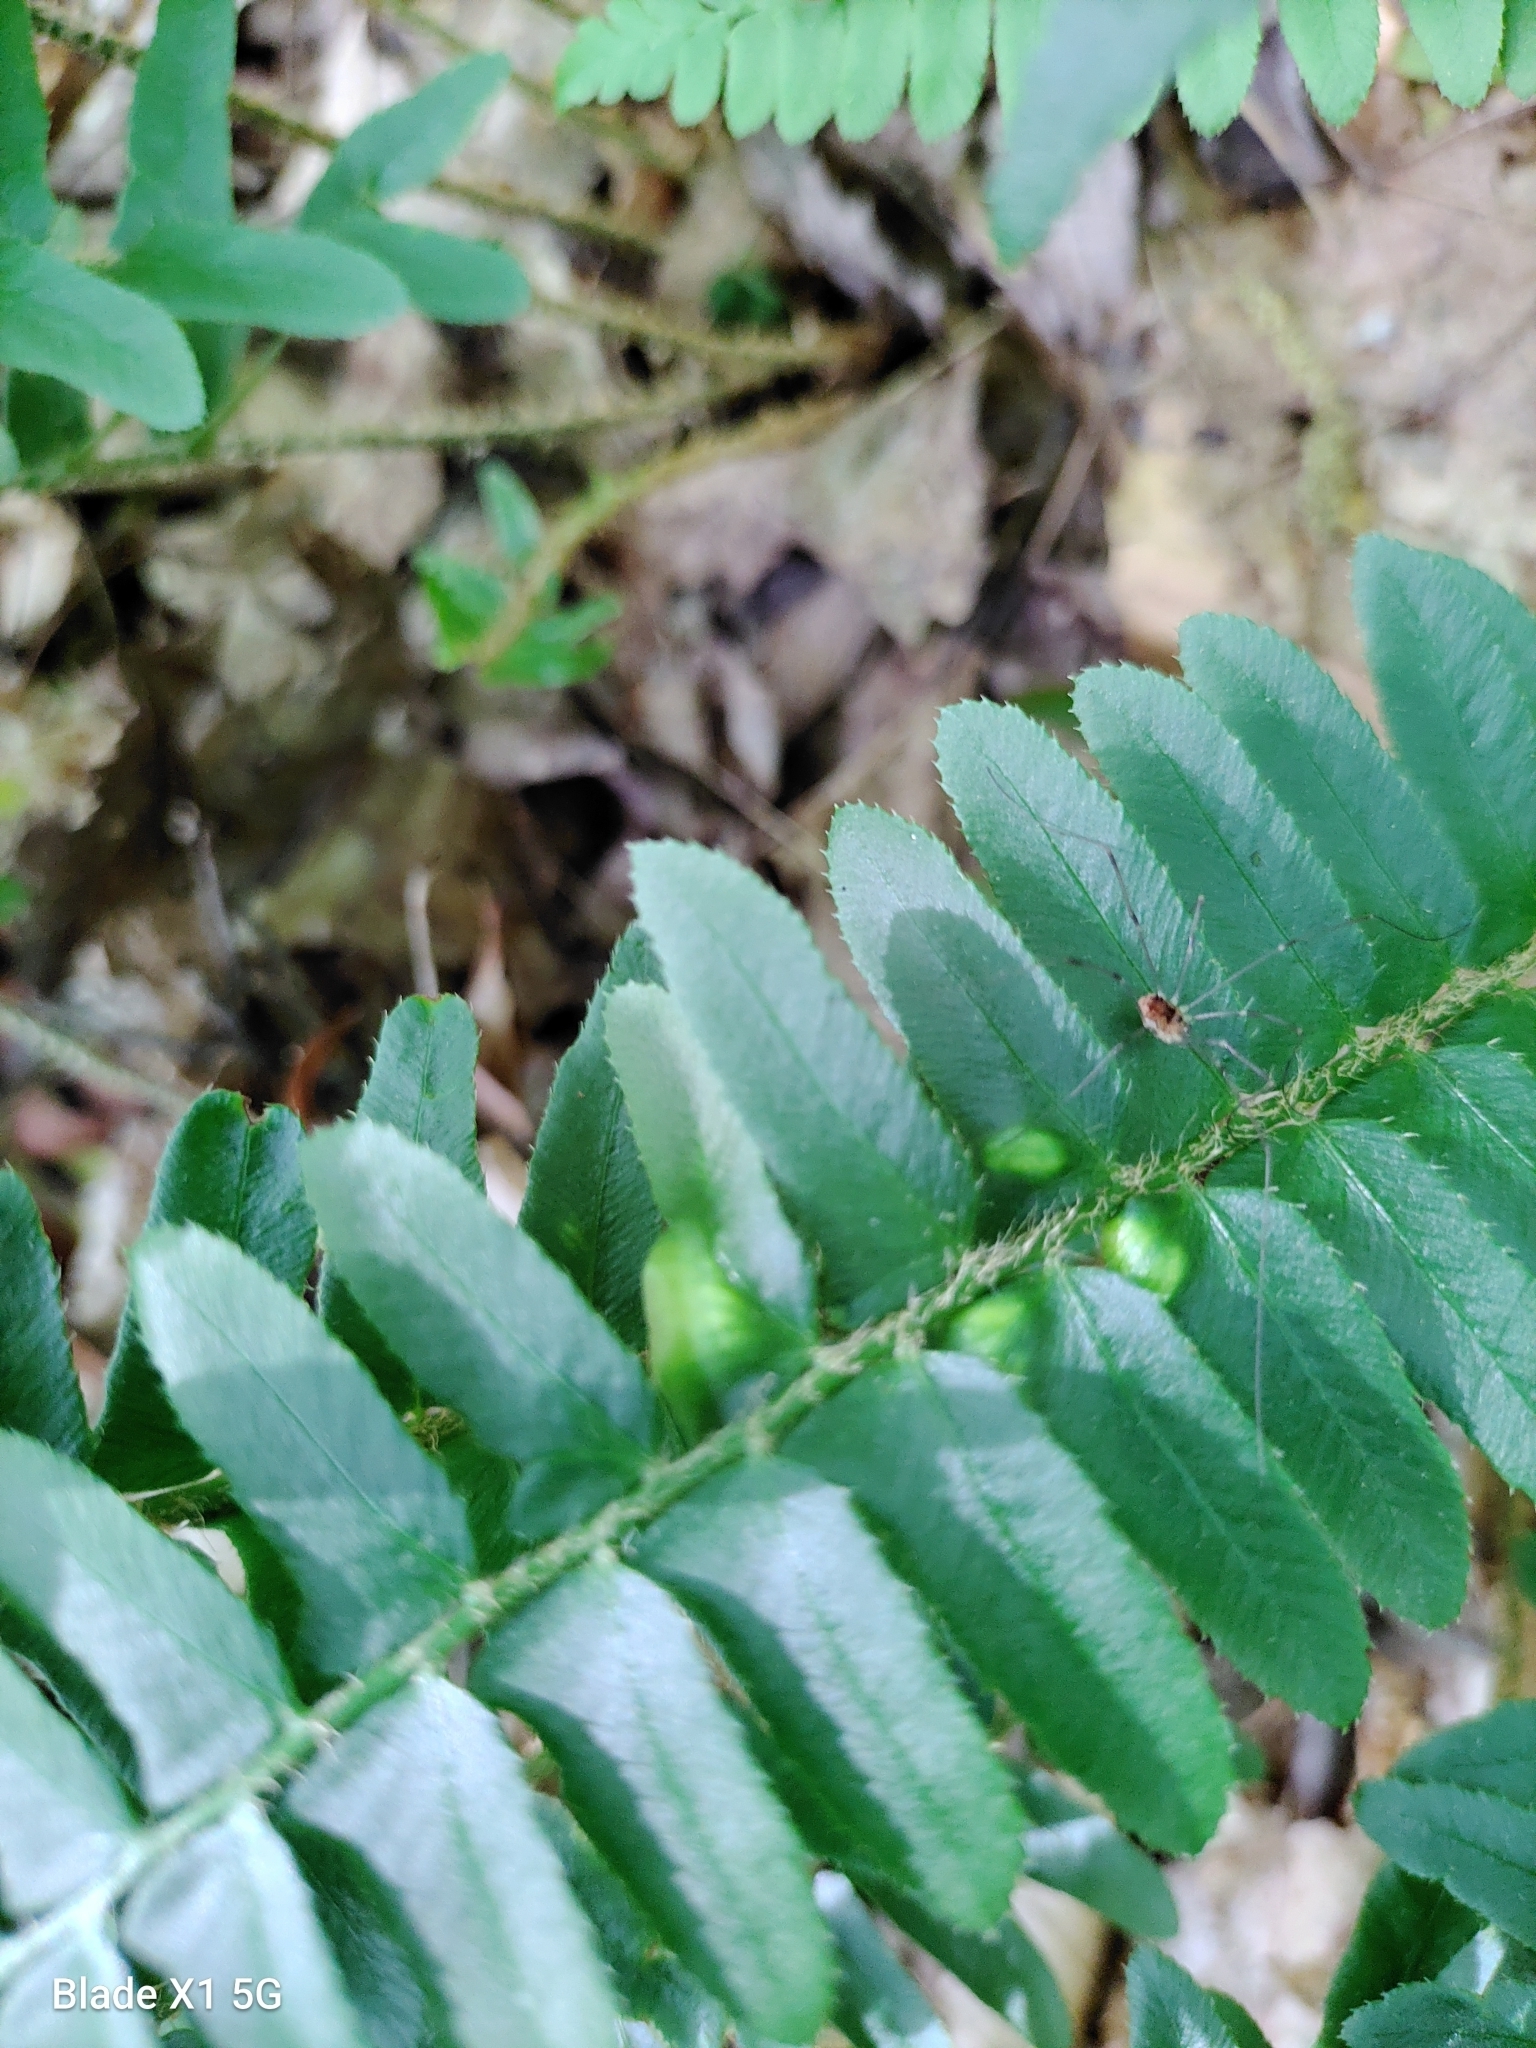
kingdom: Fungi
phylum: Ascomycota
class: Taphrinomycetes
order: Taphrinales
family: Taphrinaceae
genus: Taphrina
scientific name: Taphrina polystichi
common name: Christmas fern leaf curl
